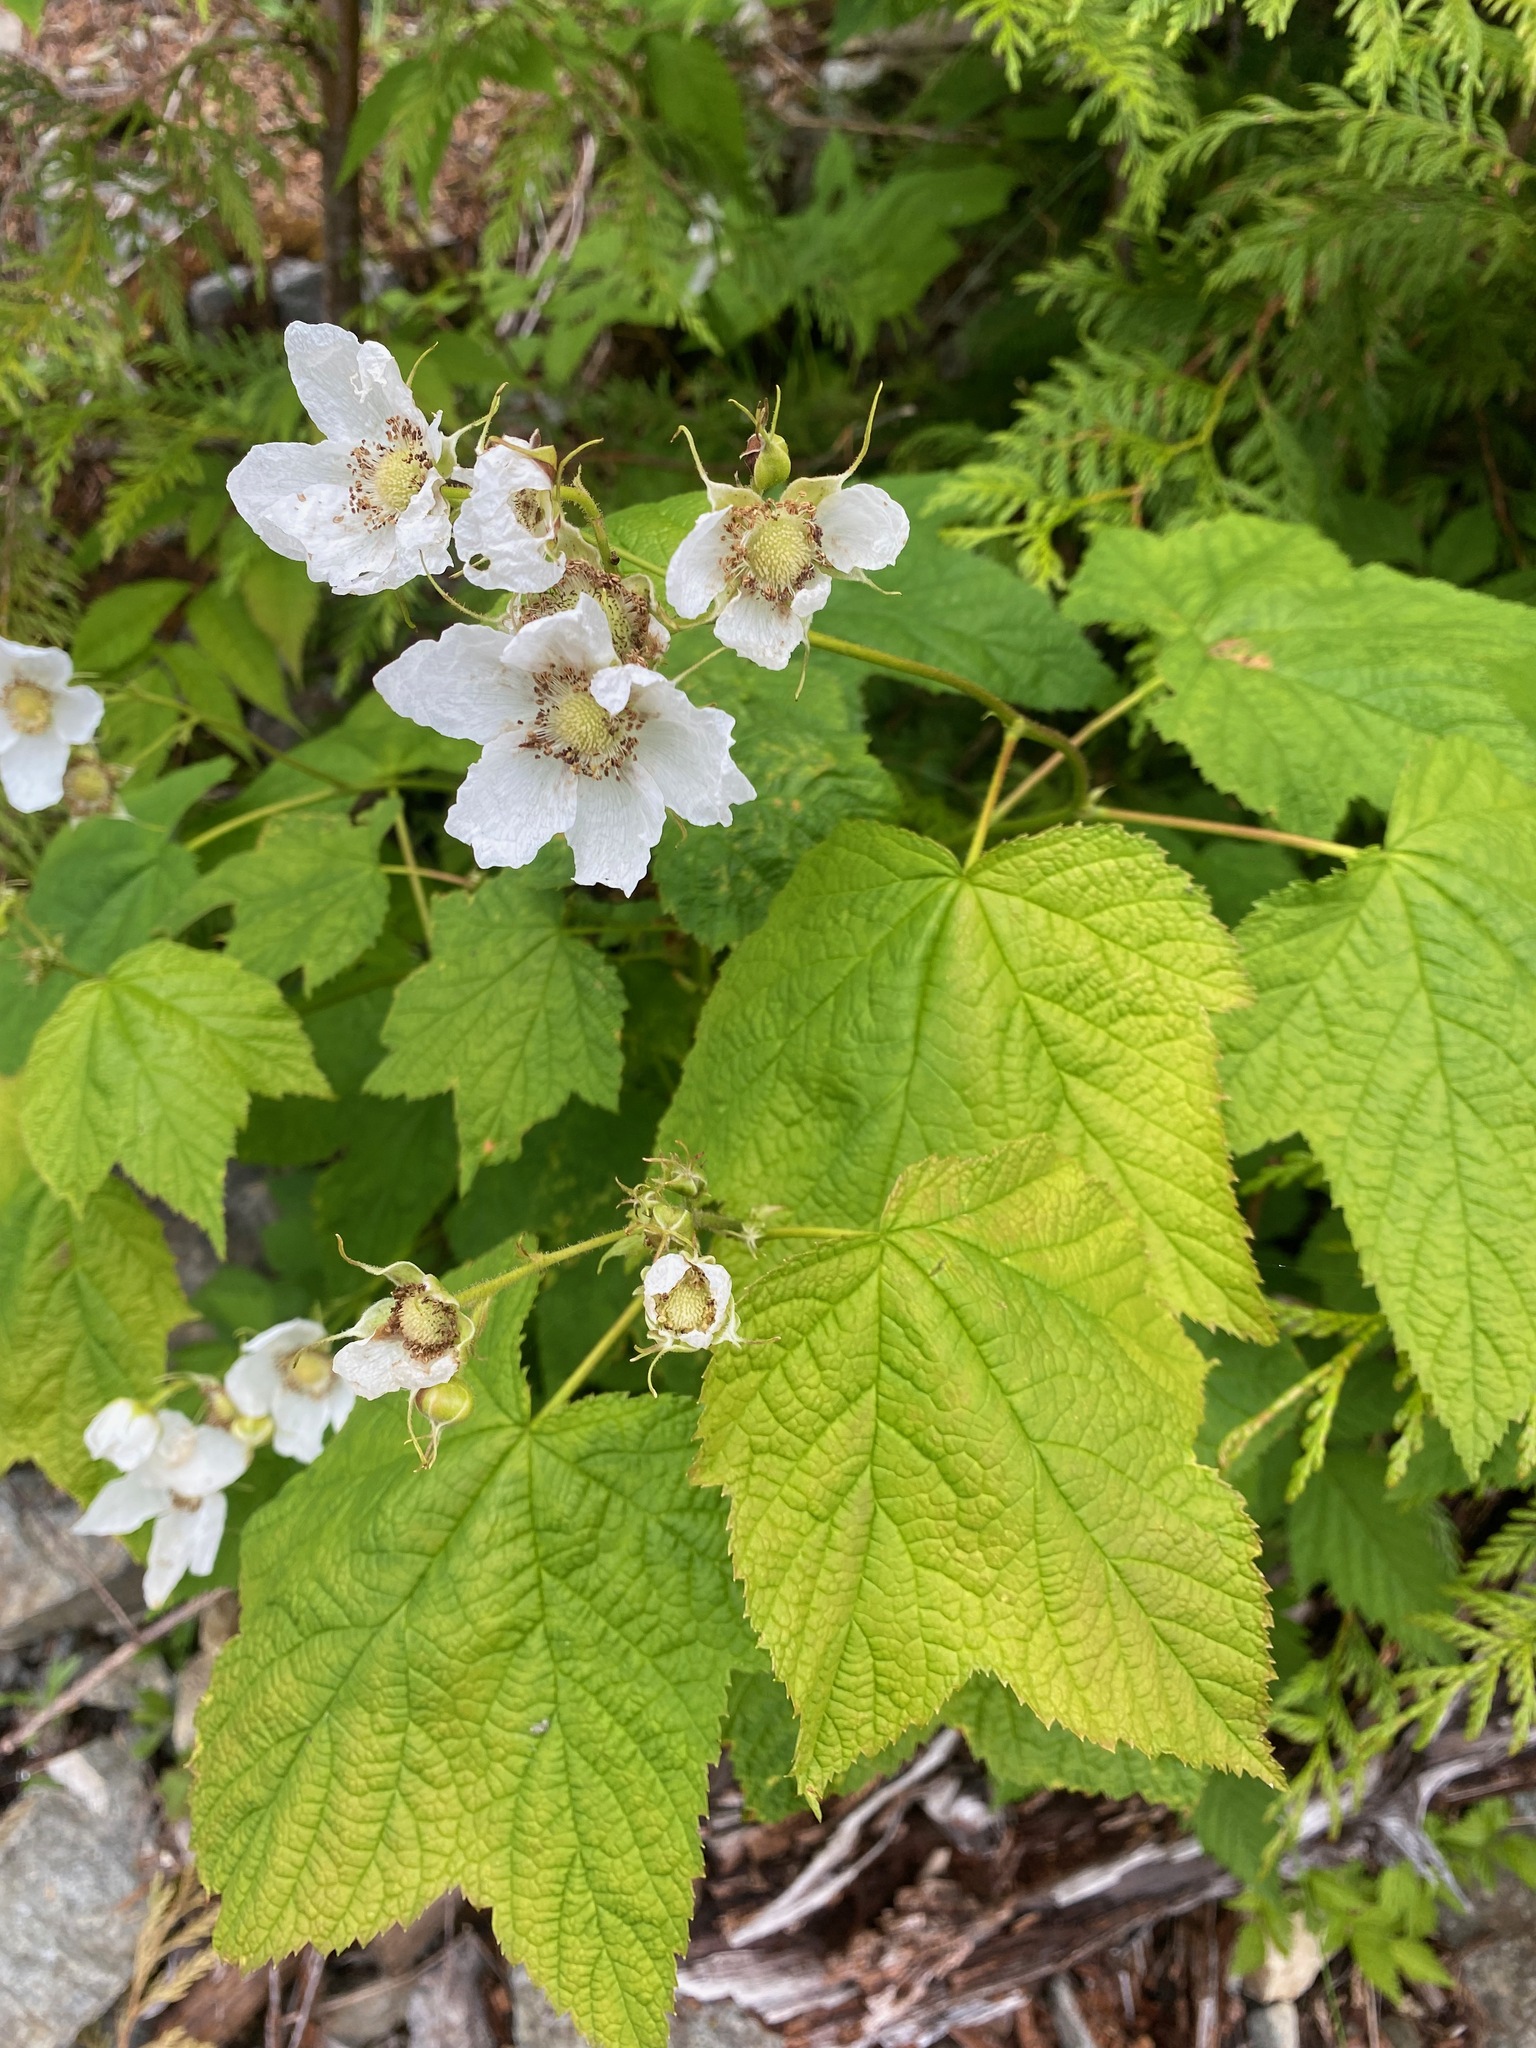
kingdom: Plantae
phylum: Tracheophyta
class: Magnoliopsida
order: Rosales
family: Rosaceae
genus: Rubus
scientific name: Rubus parviflorus
